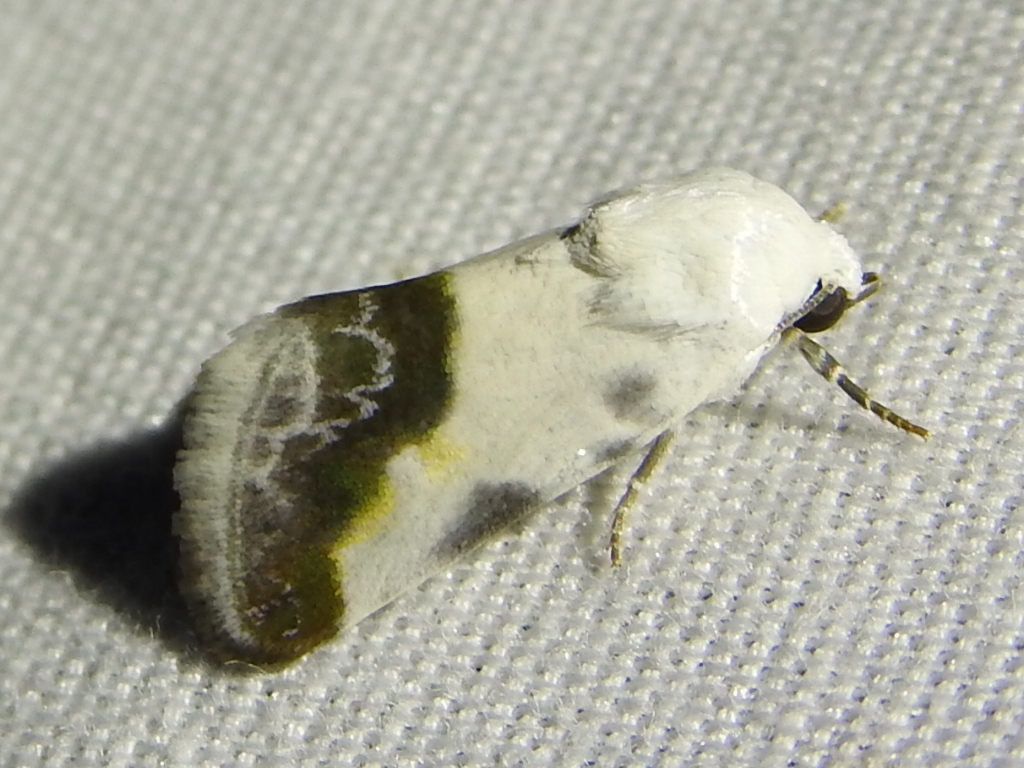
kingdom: Animalia
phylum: Arthropoda
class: Insecta
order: Lepidoptera
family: Noctuidae
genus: Acontia
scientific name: Acontia cretata
